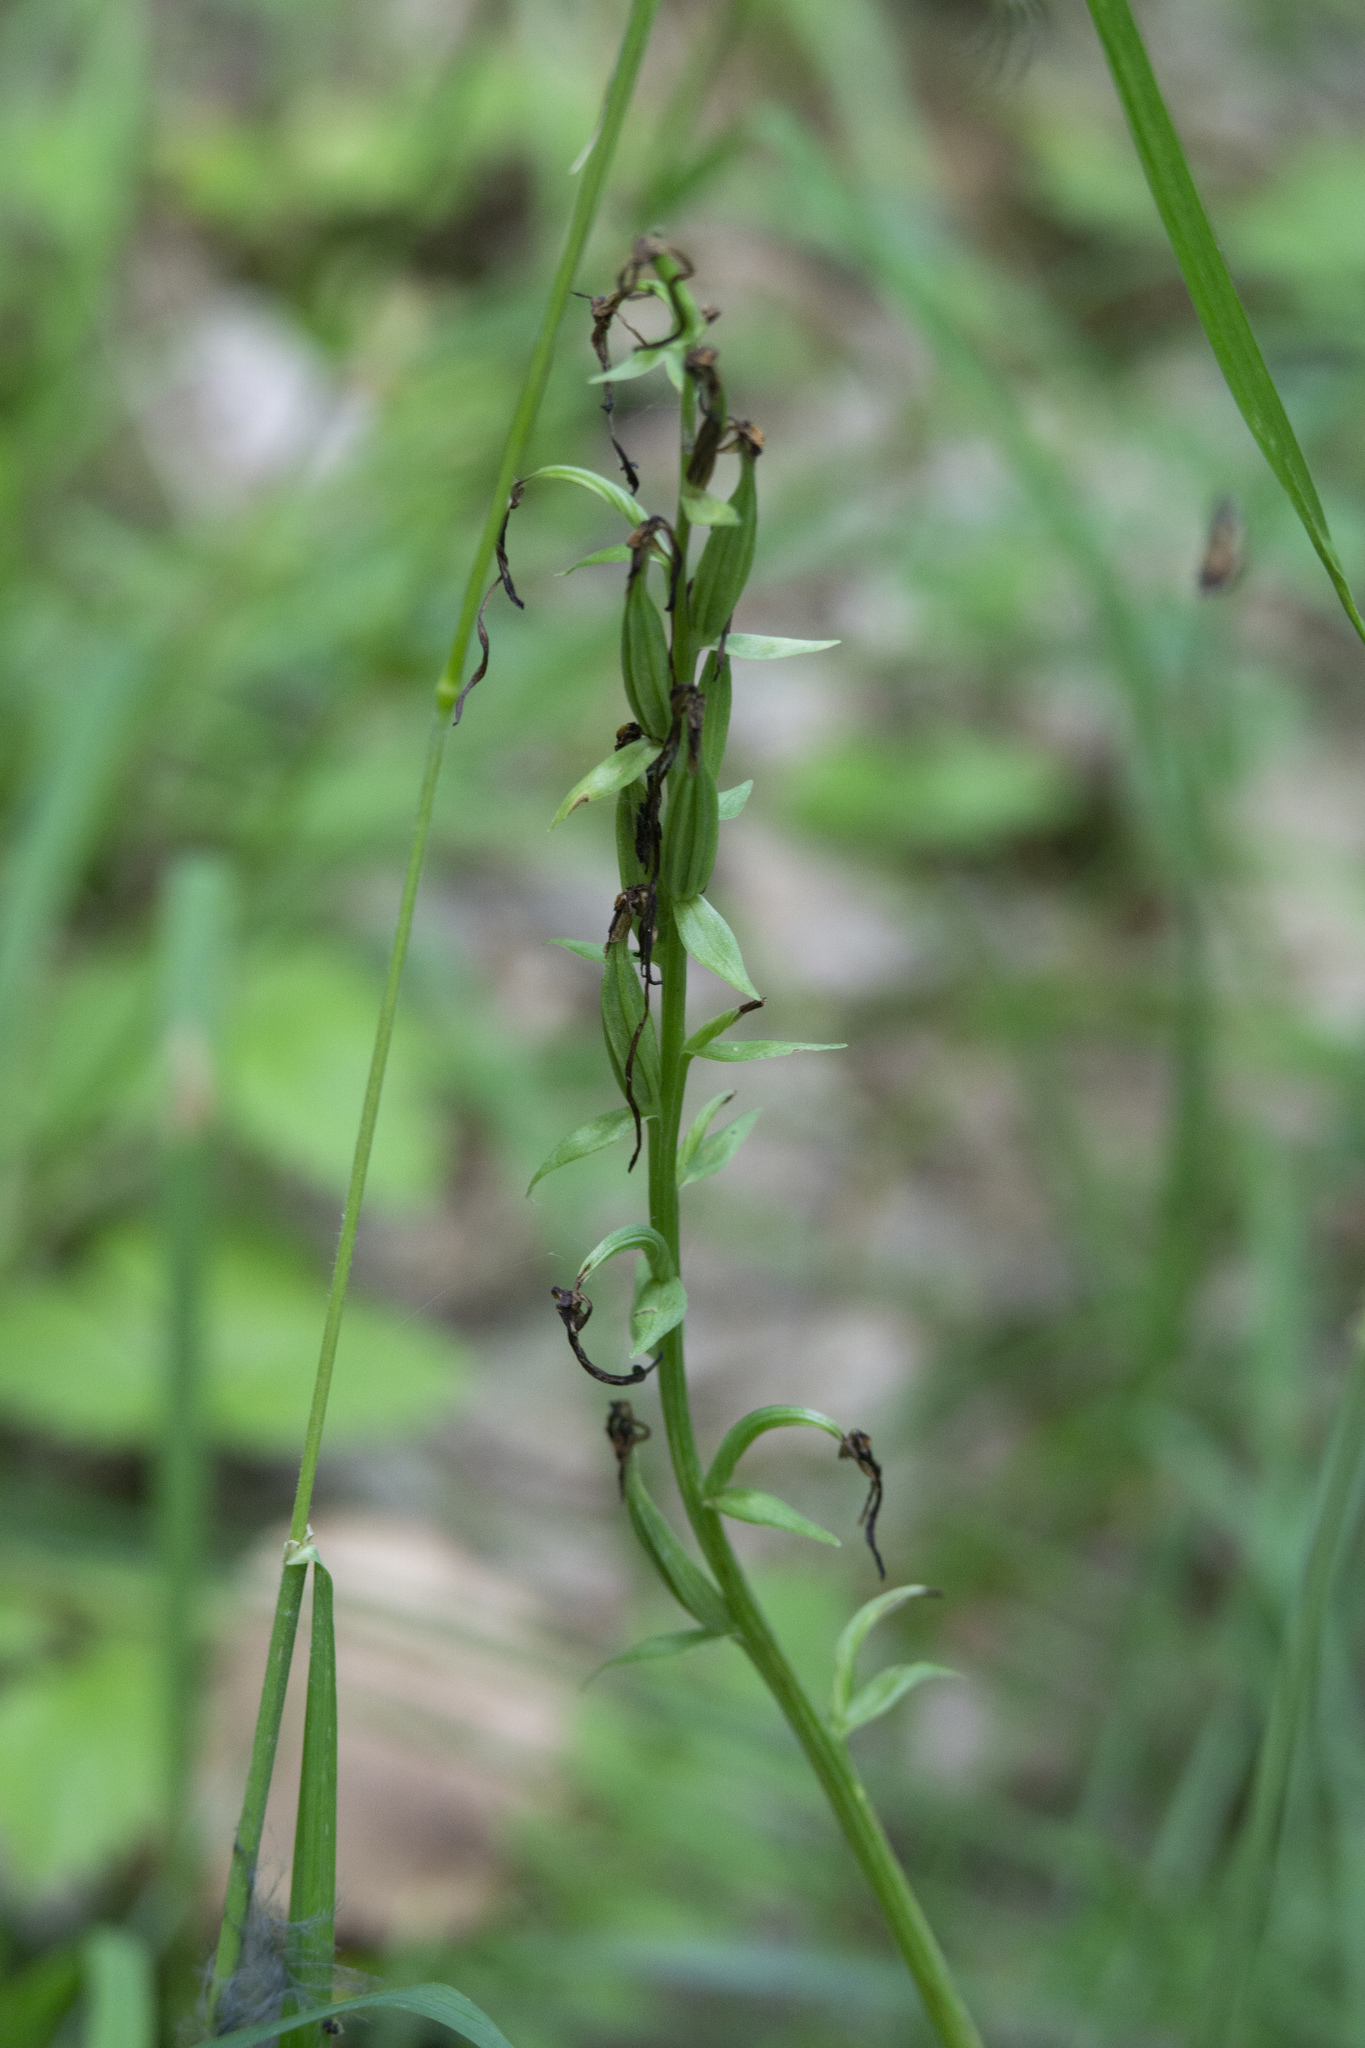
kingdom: Plantae
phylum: Tracheophyta
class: Liliopsida
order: Asparagales
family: Orchidaceae
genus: Platanthera
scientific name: Platanthera bifolia
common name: Lesser butterfly-orchid
